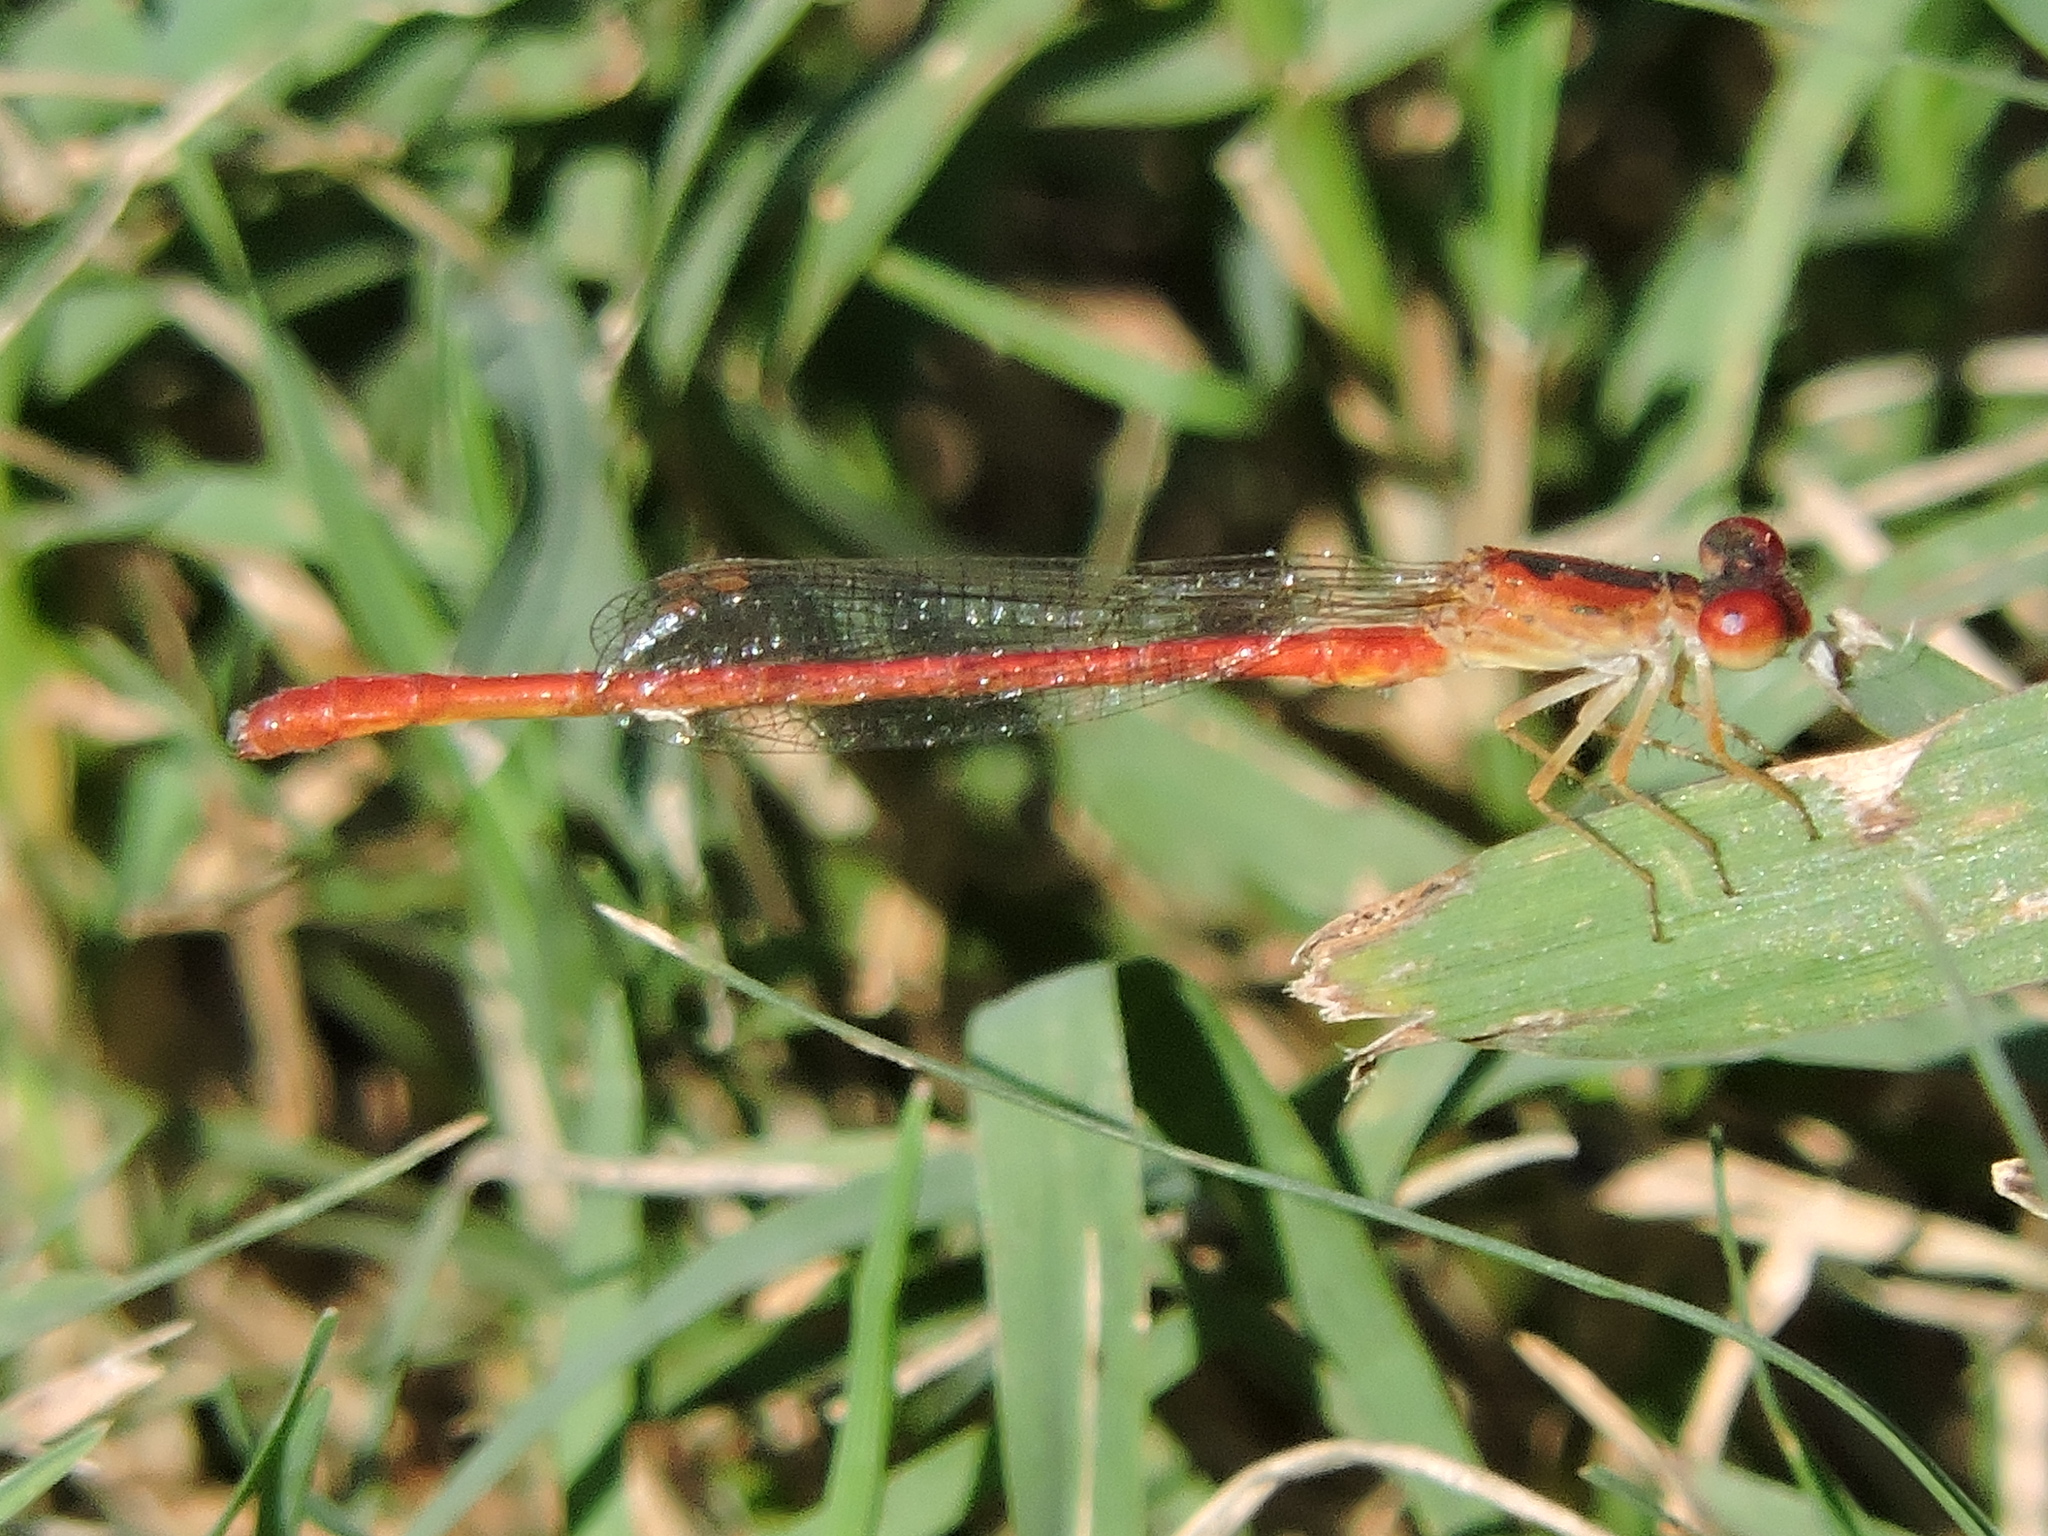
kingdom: Animalia
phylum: Arthropoda
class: Insecta
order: Odonata
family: Coenagrionidae
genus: Telebasis
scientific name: Telebasis salva
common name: Desert firetail
